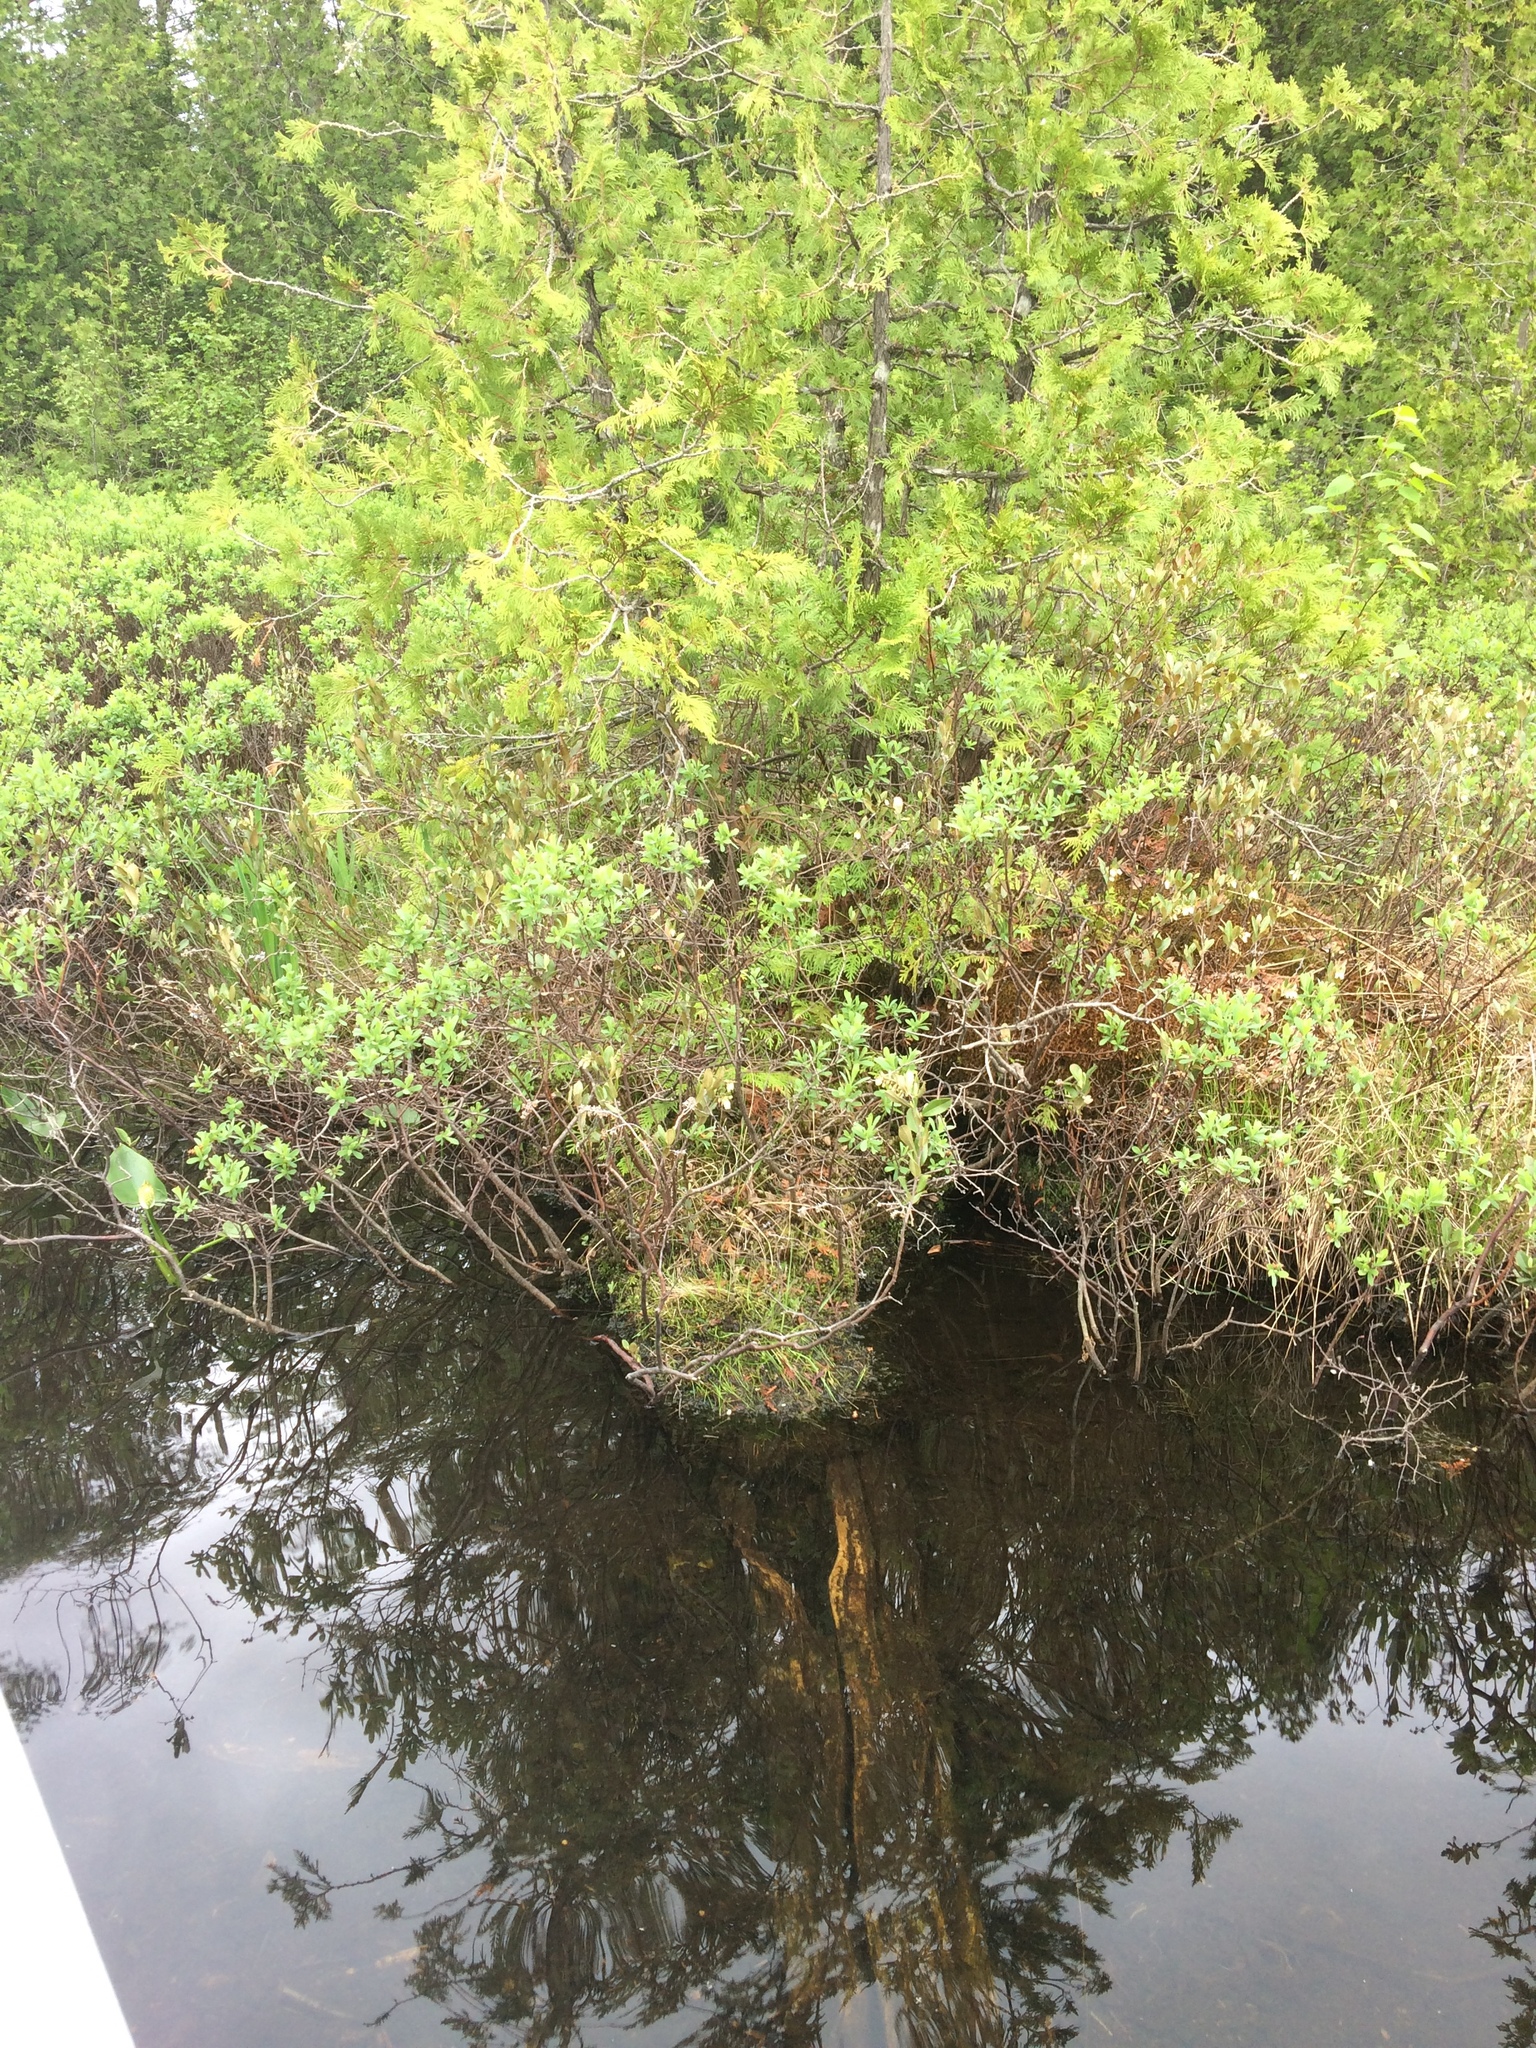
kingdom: Plantae
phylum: Tracheophyta
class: Pinopsida
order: Pinales
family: Cupressaceae
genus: Thuja
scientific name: Thuja occidentalis
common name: Northern white-cedar
